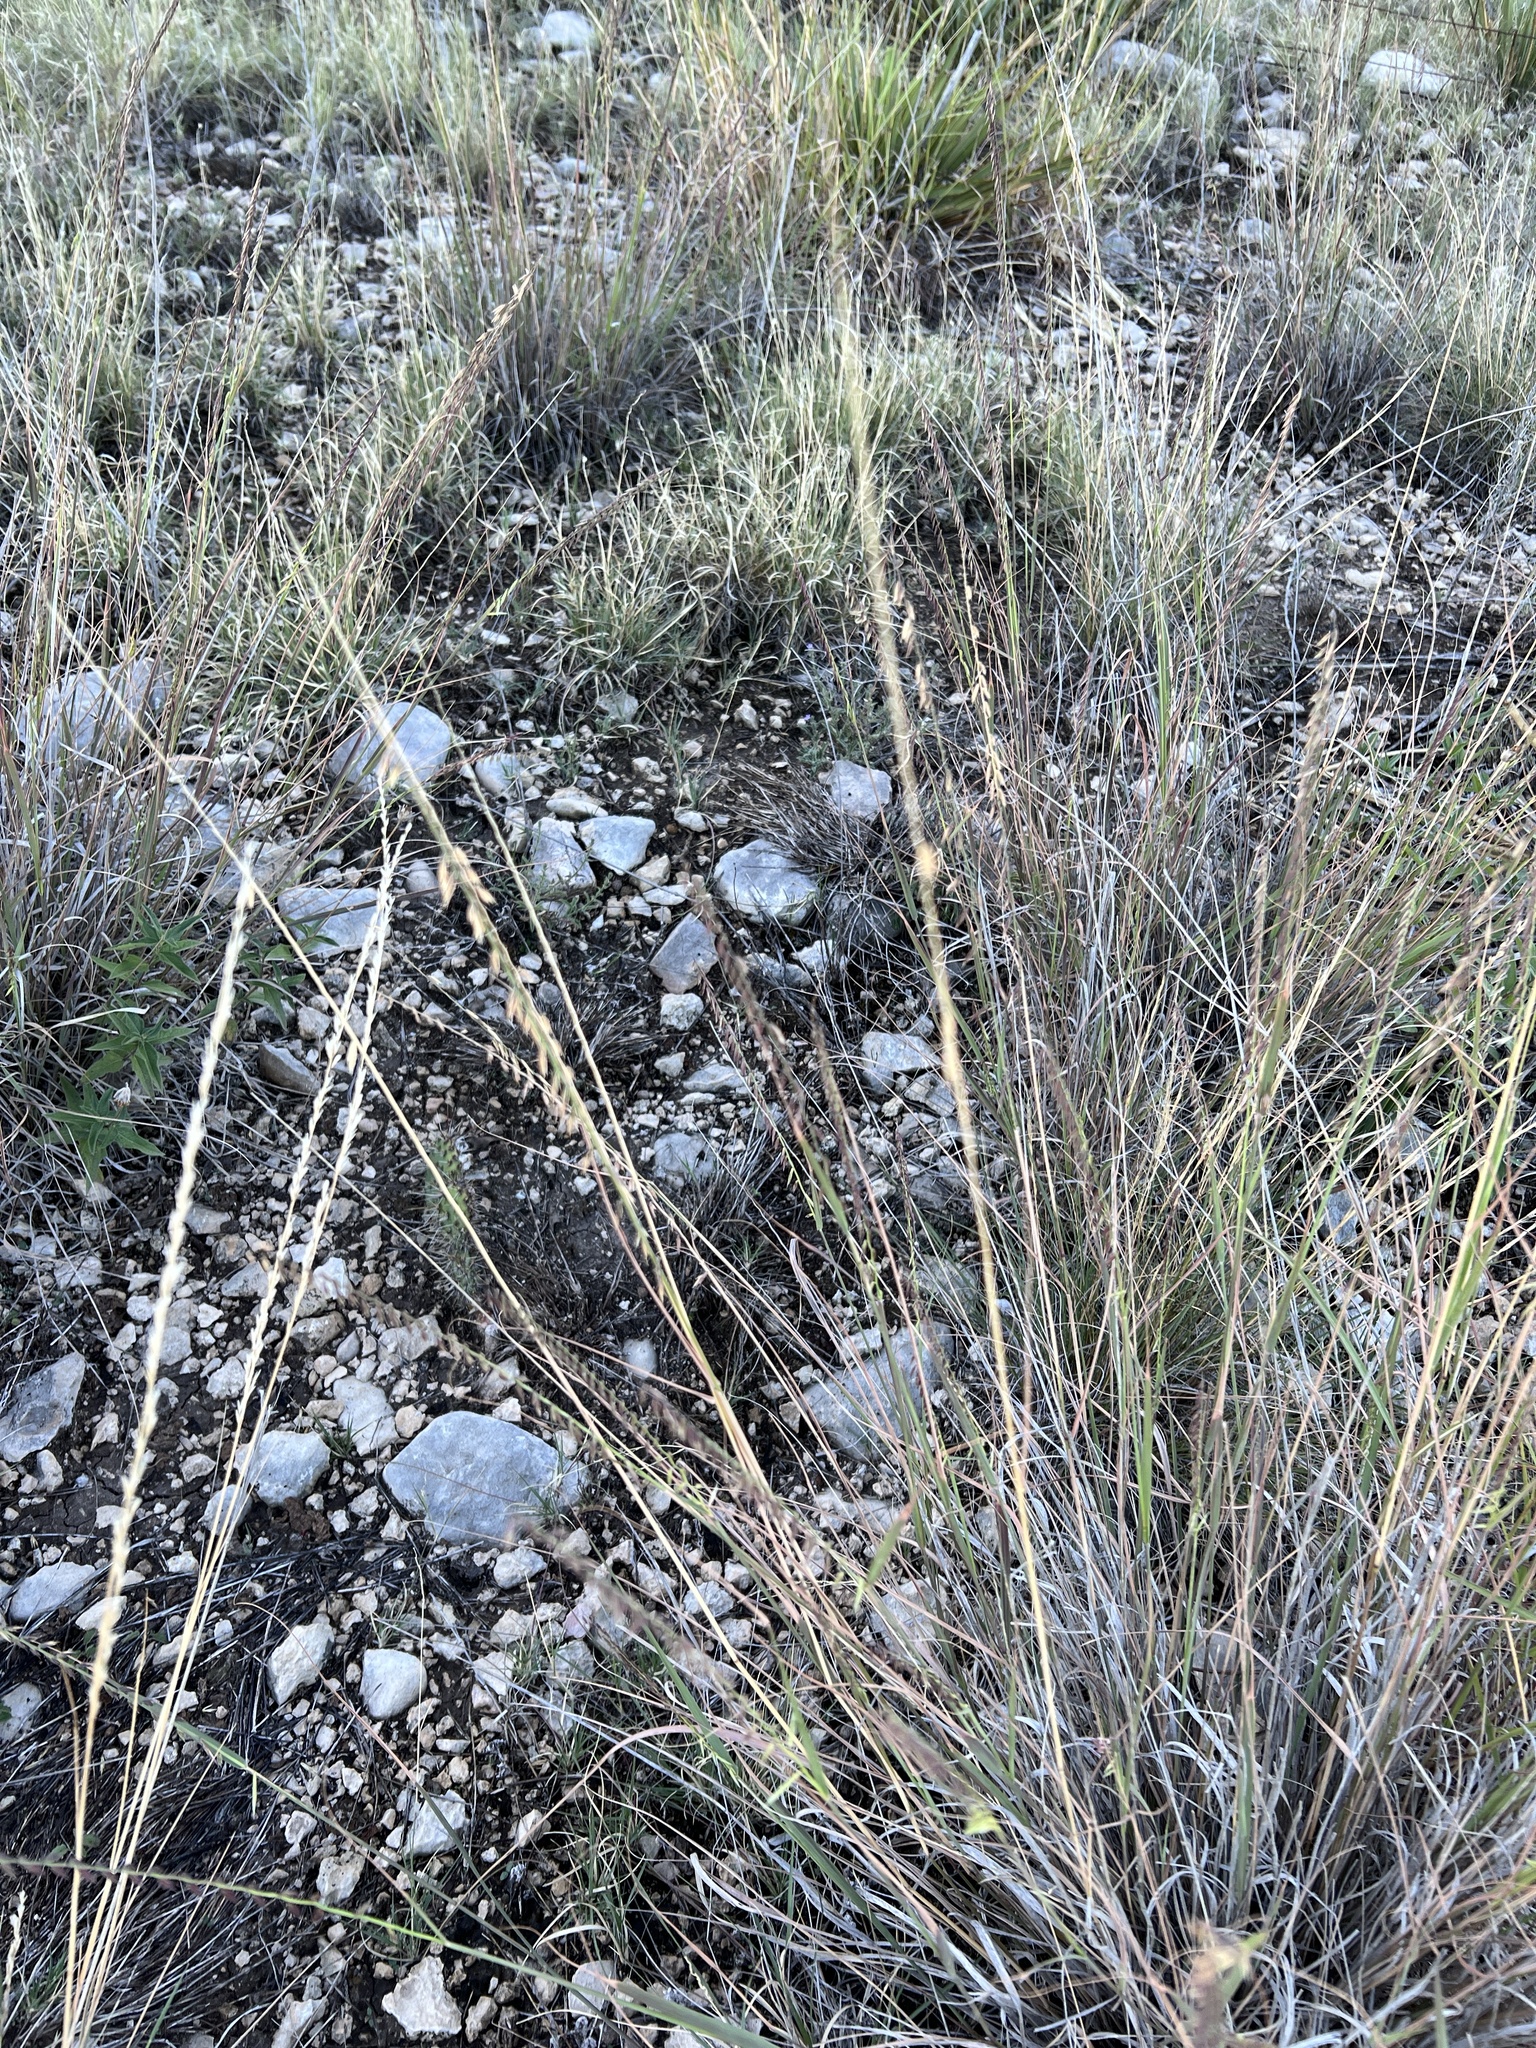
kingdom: Plantae
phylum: Tracheophyta
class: Liliopsida
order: Poales
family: Poaceae
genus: Bouteloua
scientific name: Bouteloua curtipendula
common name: Side-oats grama
